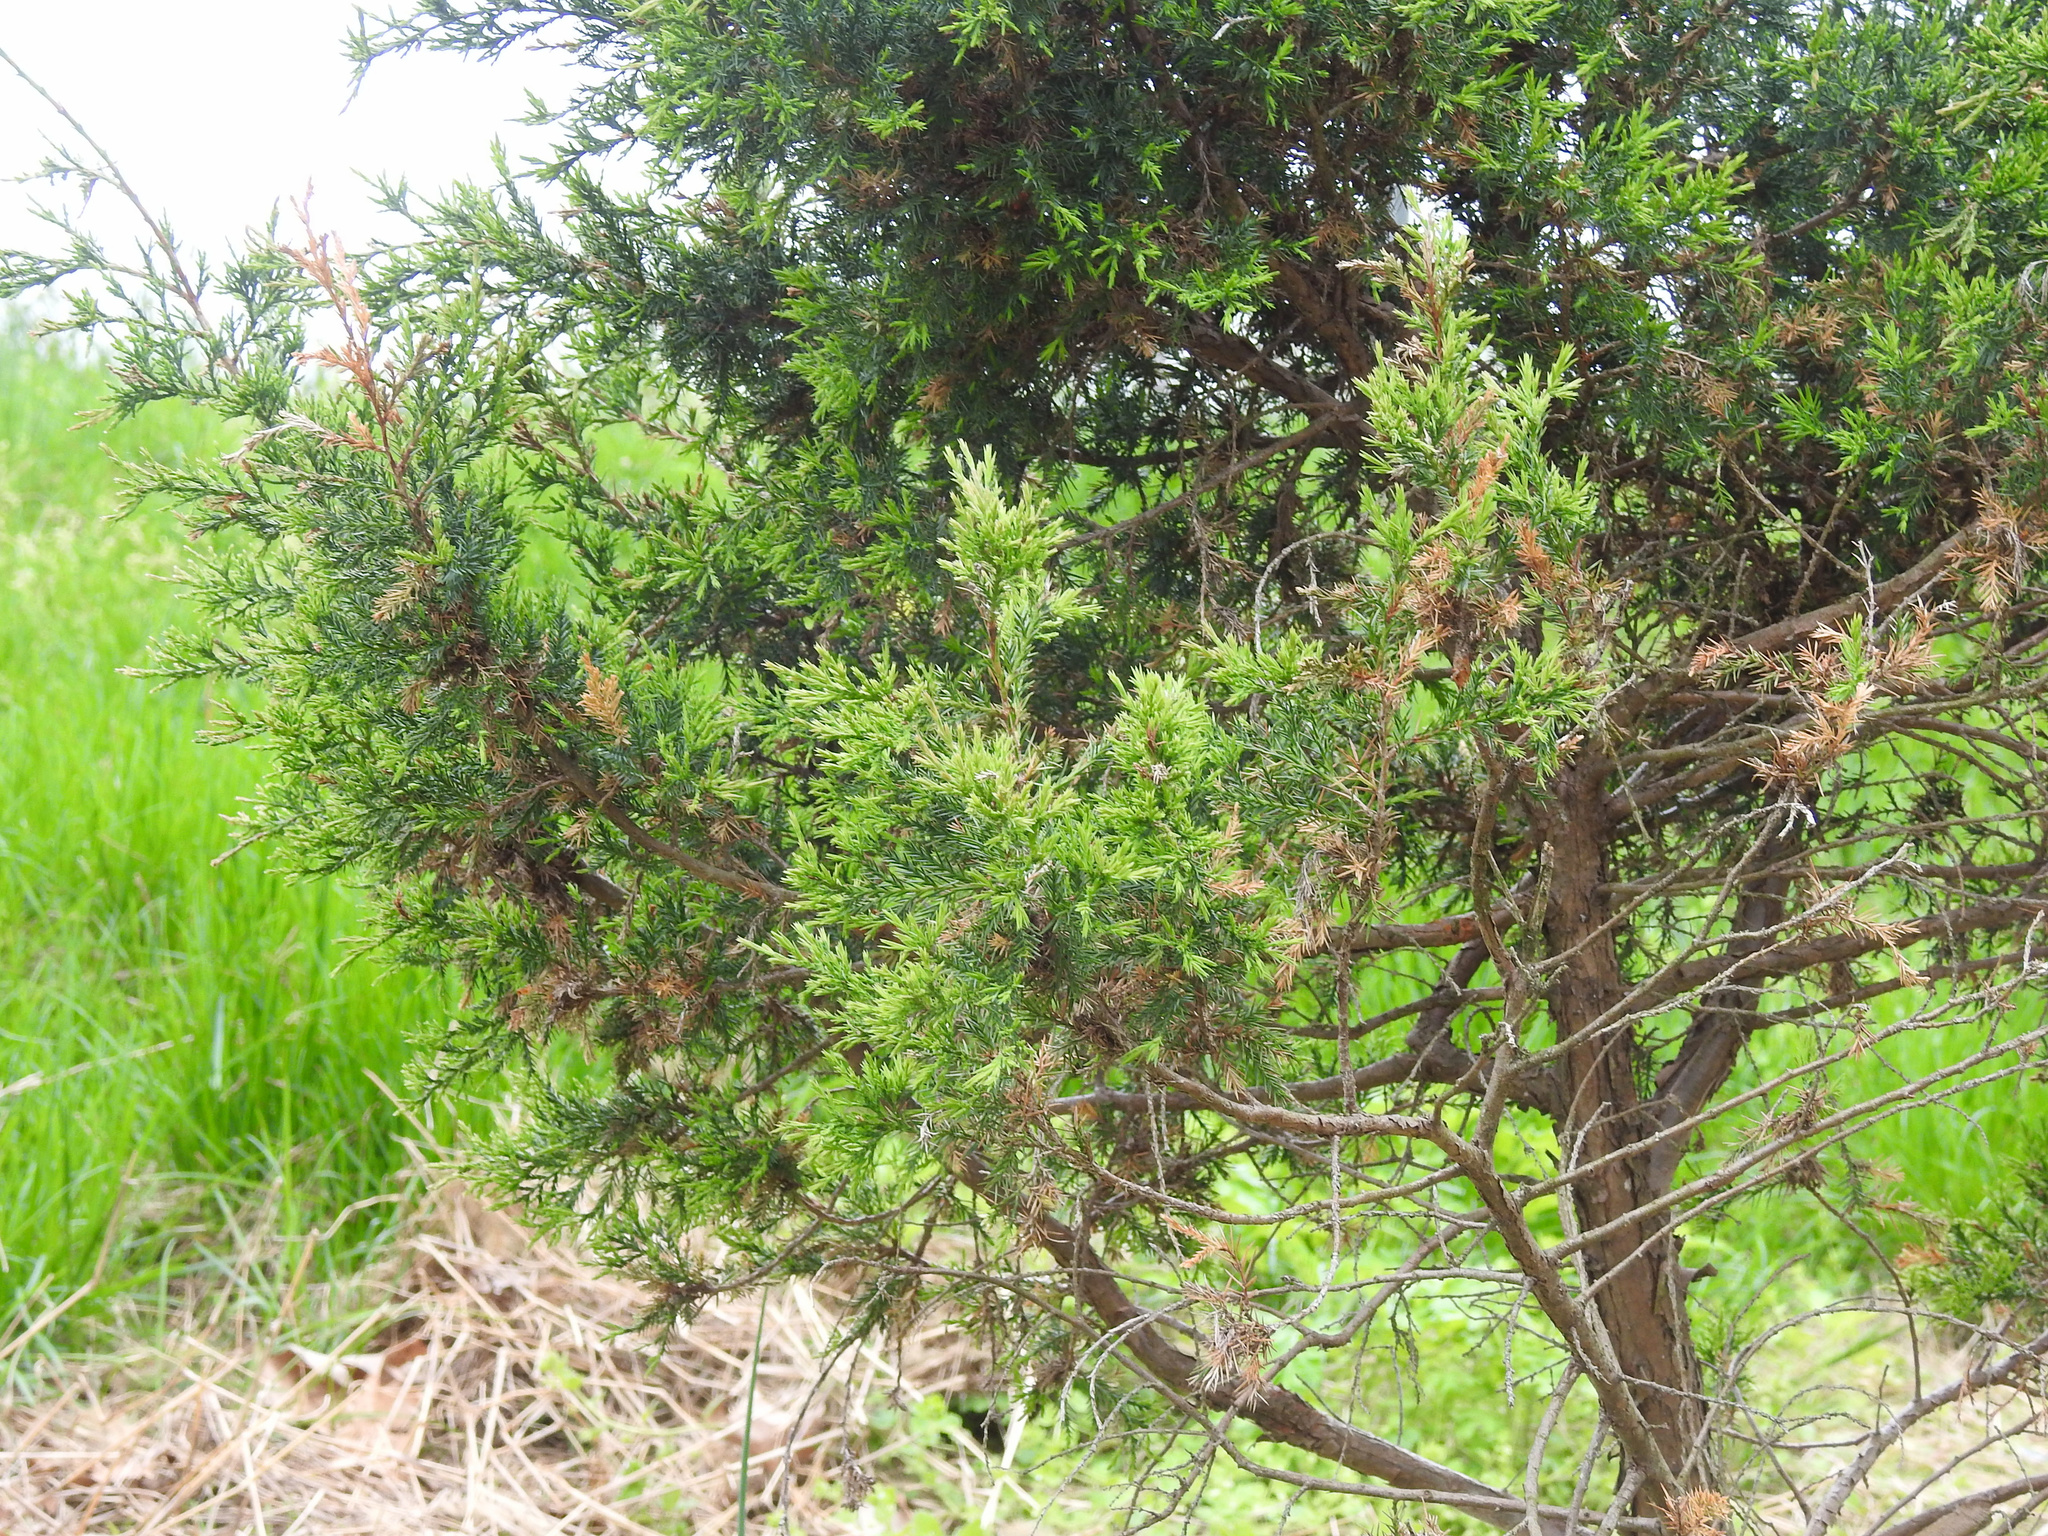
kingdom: Plantae
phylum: Tracheophyta
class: Pinopsida
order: Pinales
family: Cupressaceae
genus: Juniperus
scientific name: Juniperus virginiana
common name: Red juniper
